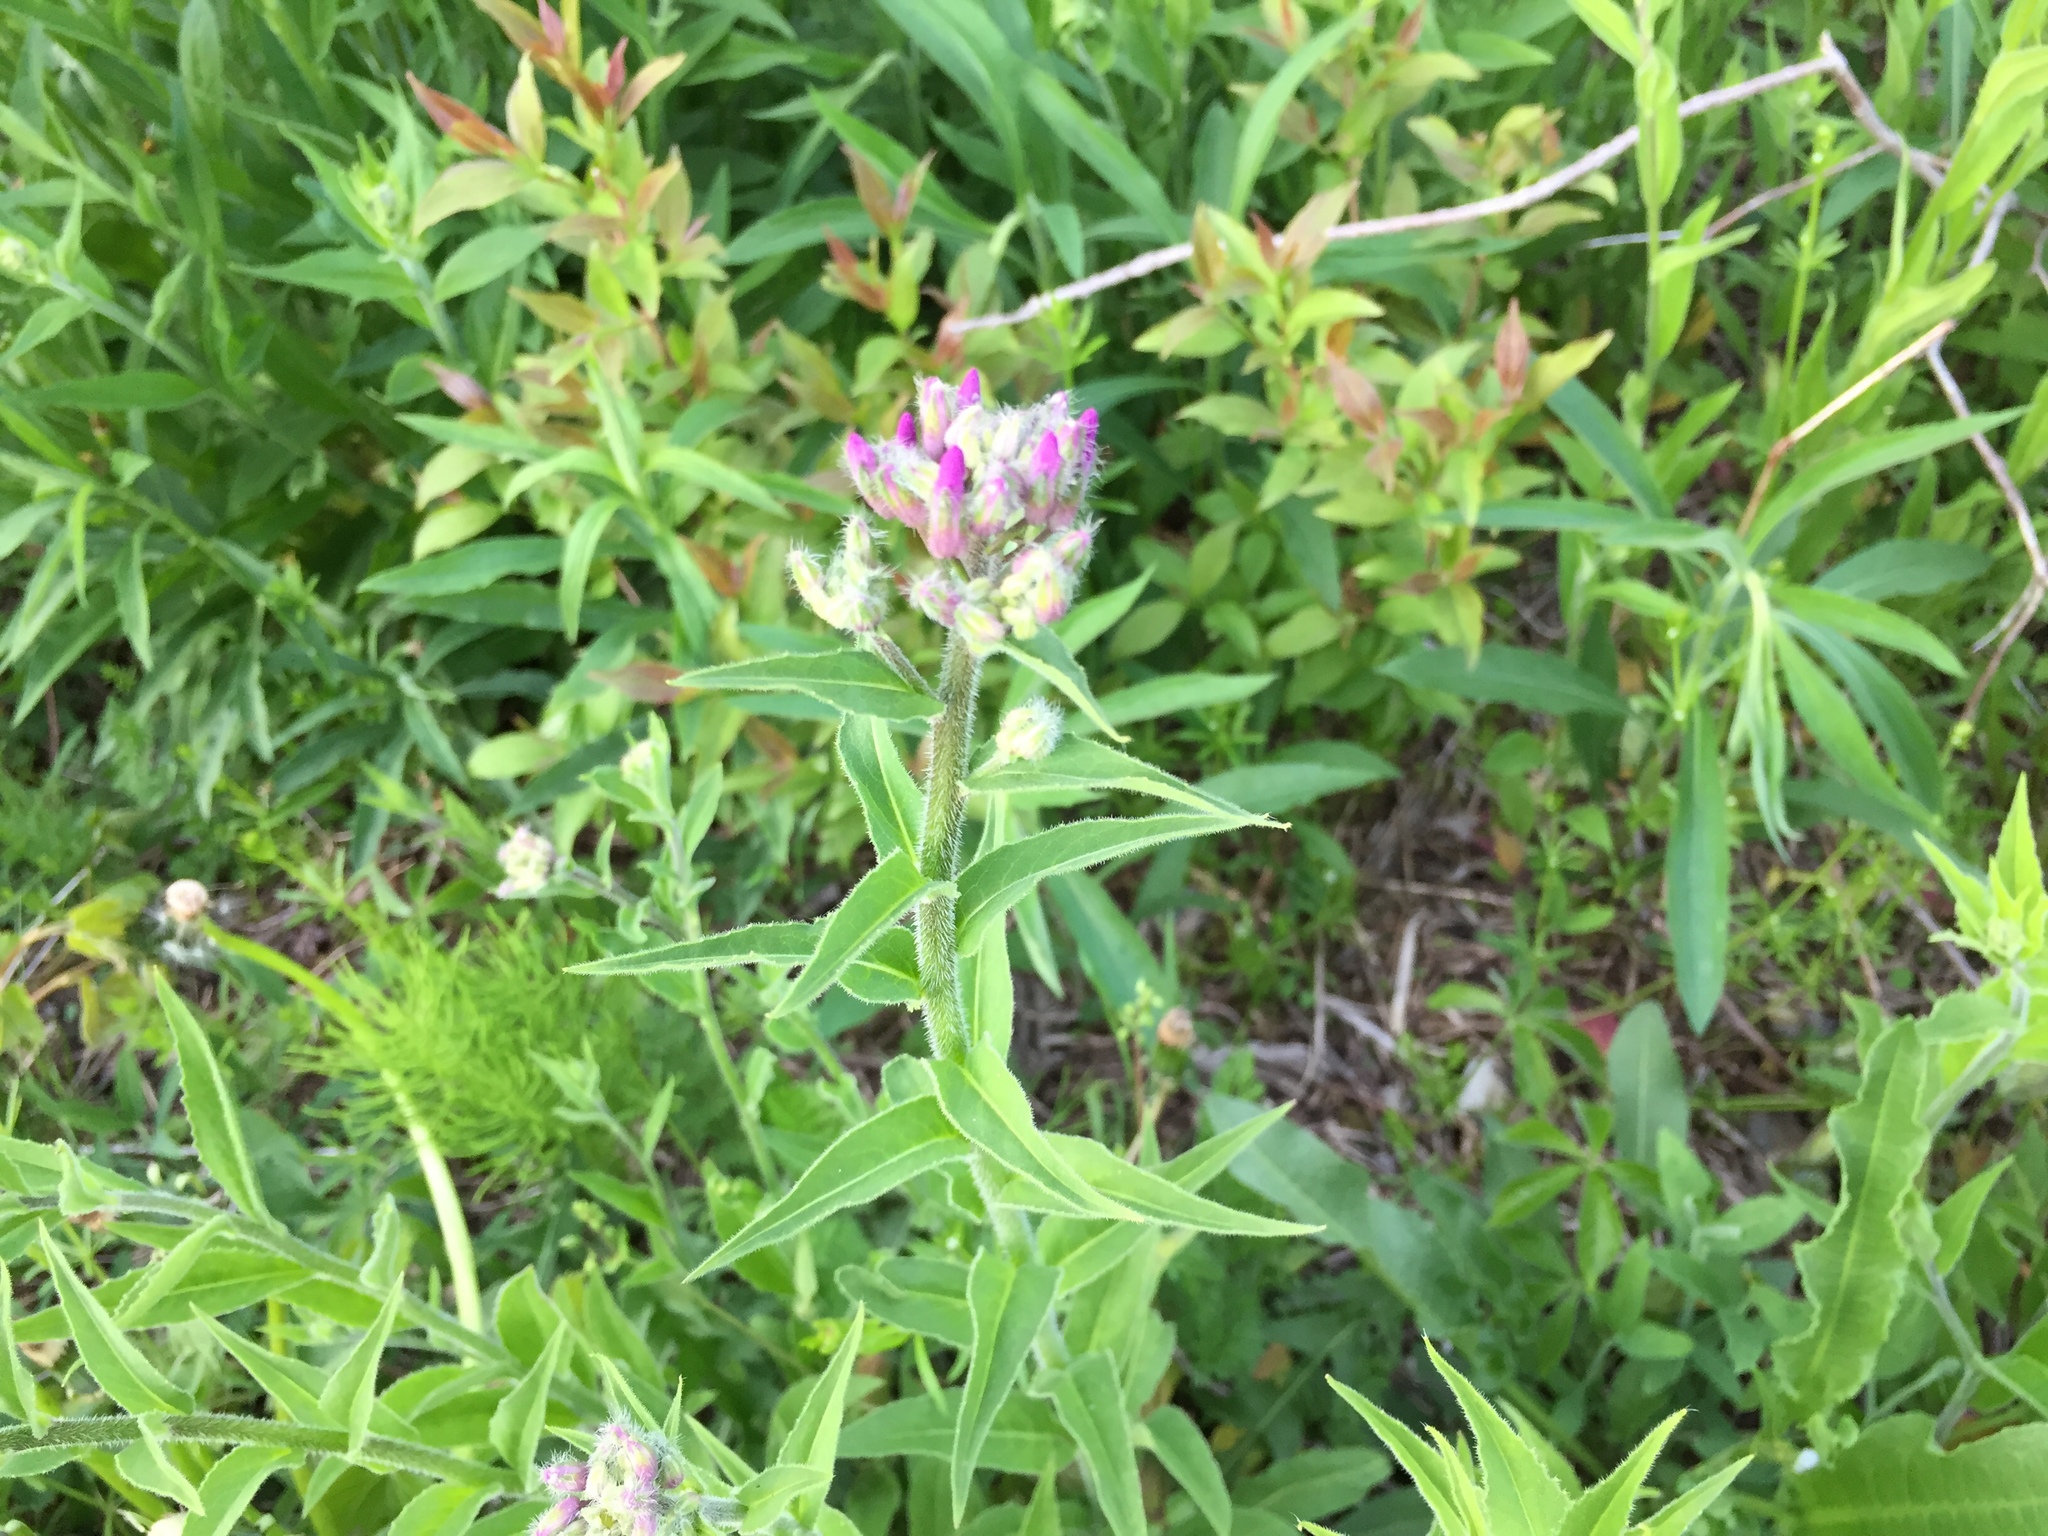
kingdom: Plantae
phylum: Tracheophyta
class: Magnoliopsida
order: Brassicales
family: Brassicaceae
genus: Hesperis
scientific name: Hesperis matronalis
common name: Dame's-violet
